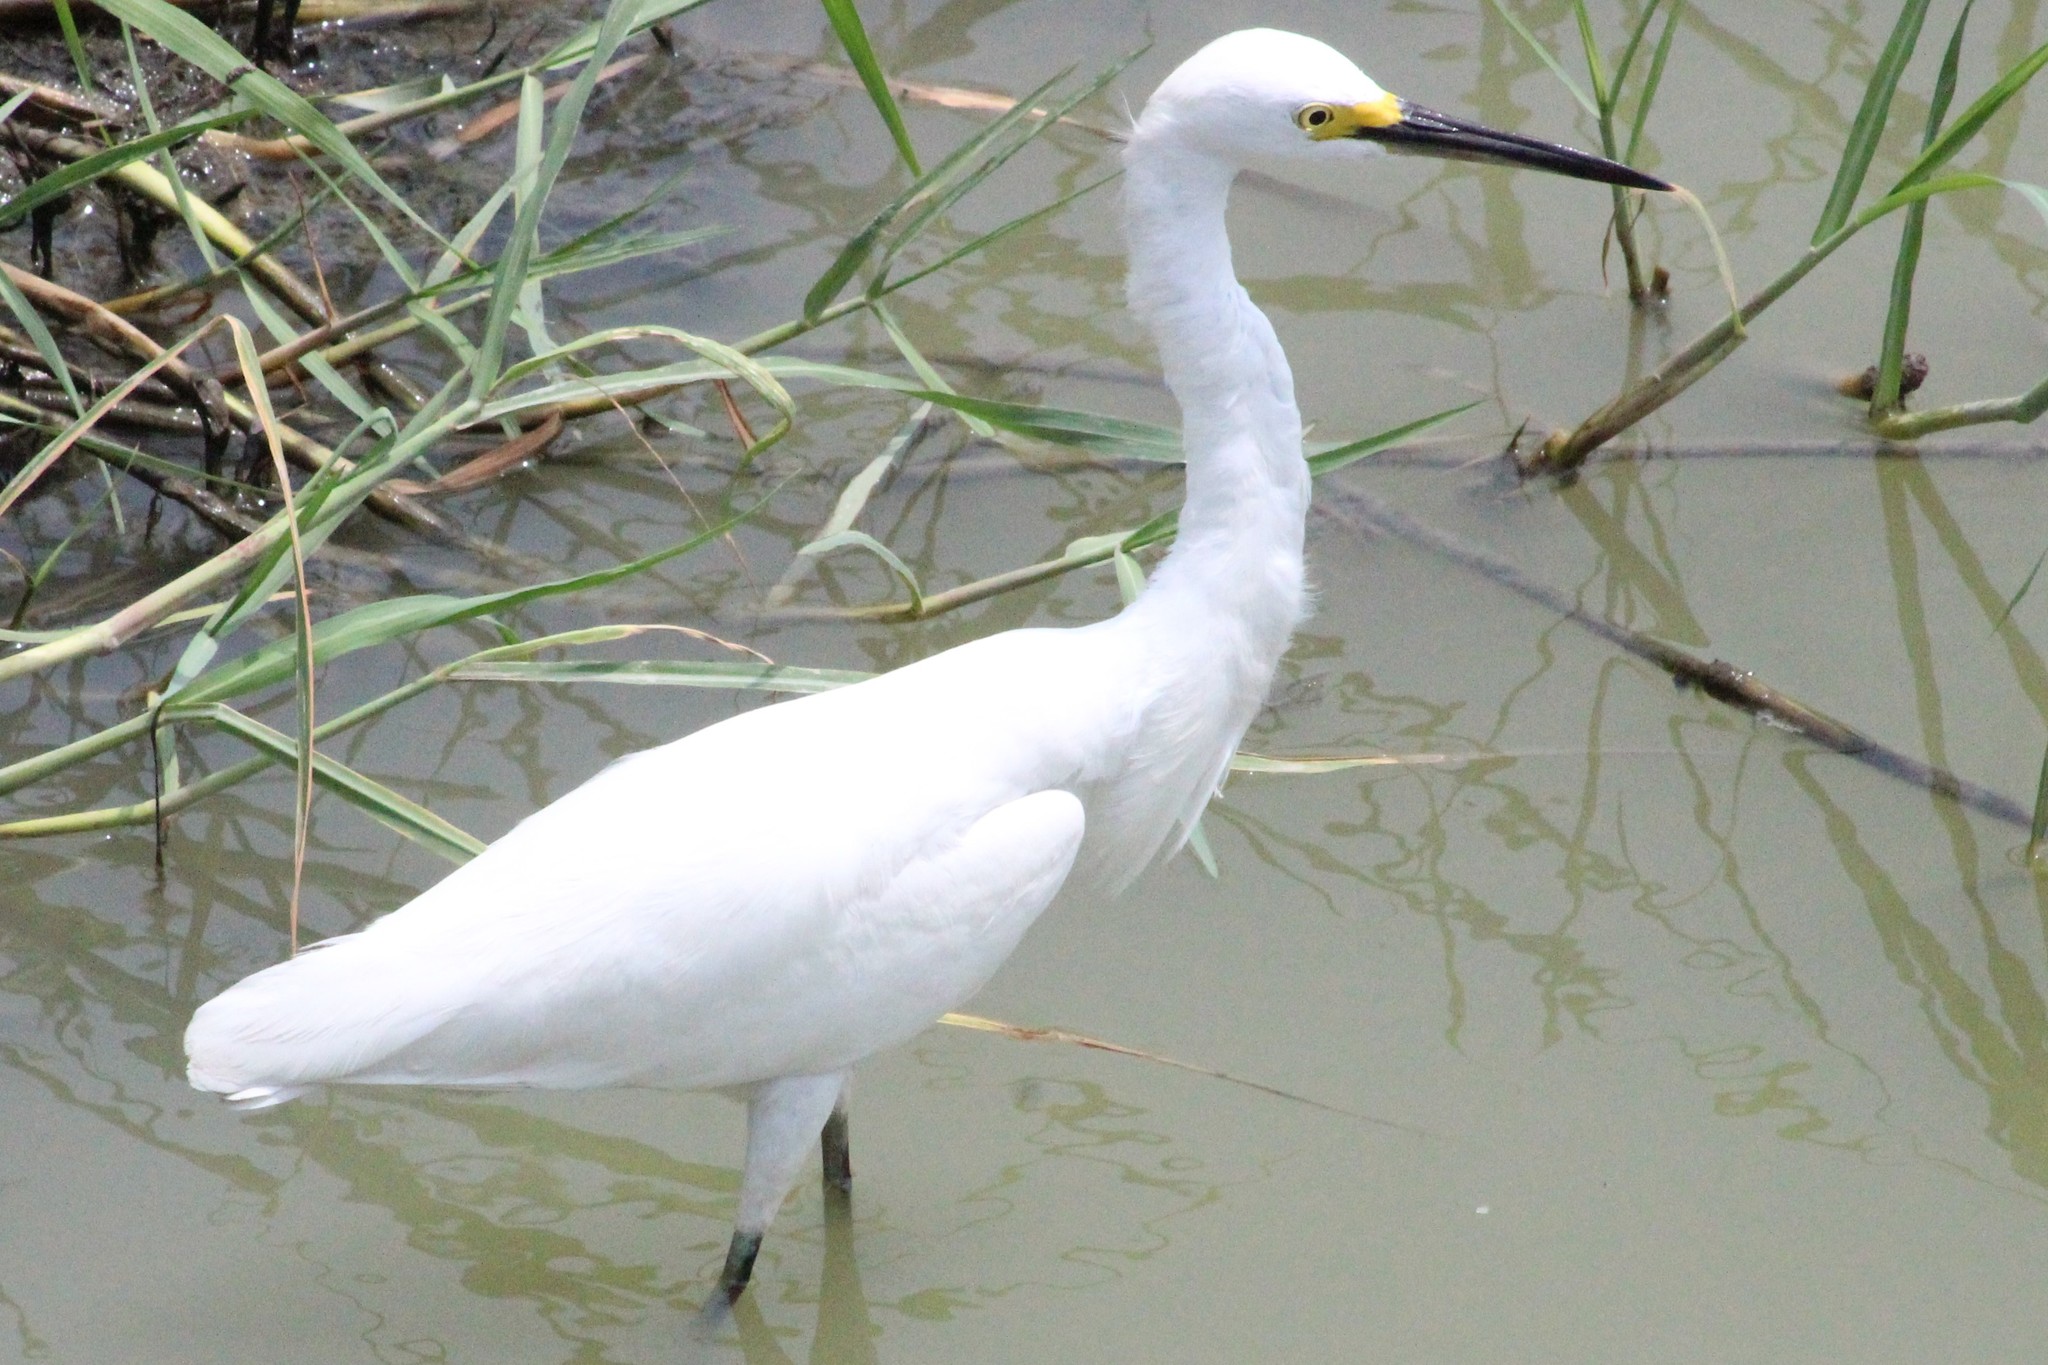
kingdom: Animalia
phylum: Chordata
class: Aves
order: Pelecaniformes
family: Ardeidae
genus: Egretta
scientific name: Egretta thula
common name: Snowy egret
